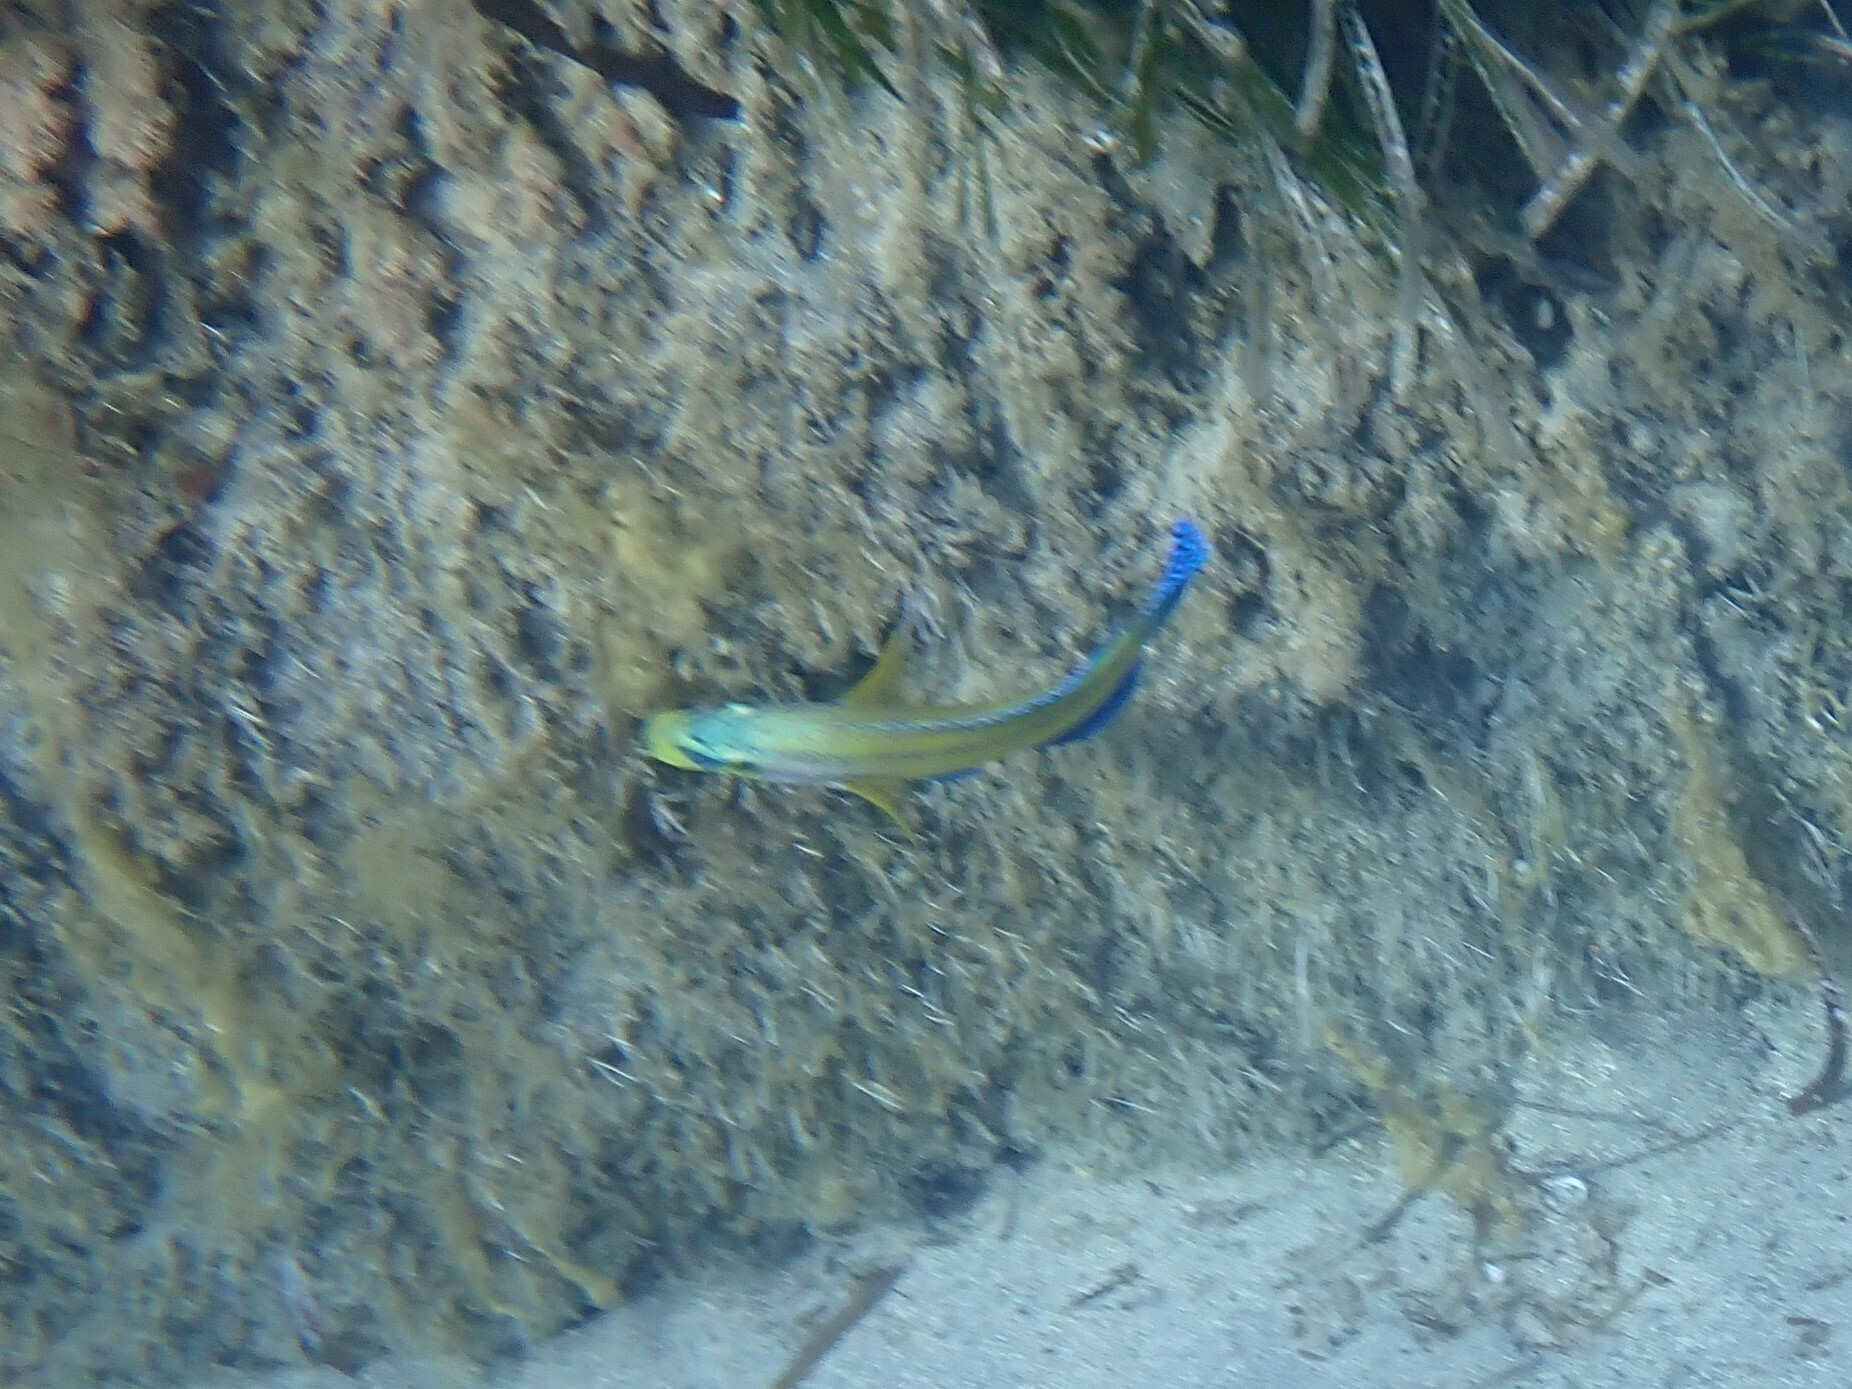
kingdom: Animalia
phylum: Chordata
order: Perciformes
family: Labridae
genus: Symphodus
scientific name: Symphodus tinca
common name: Peacock wrasse
